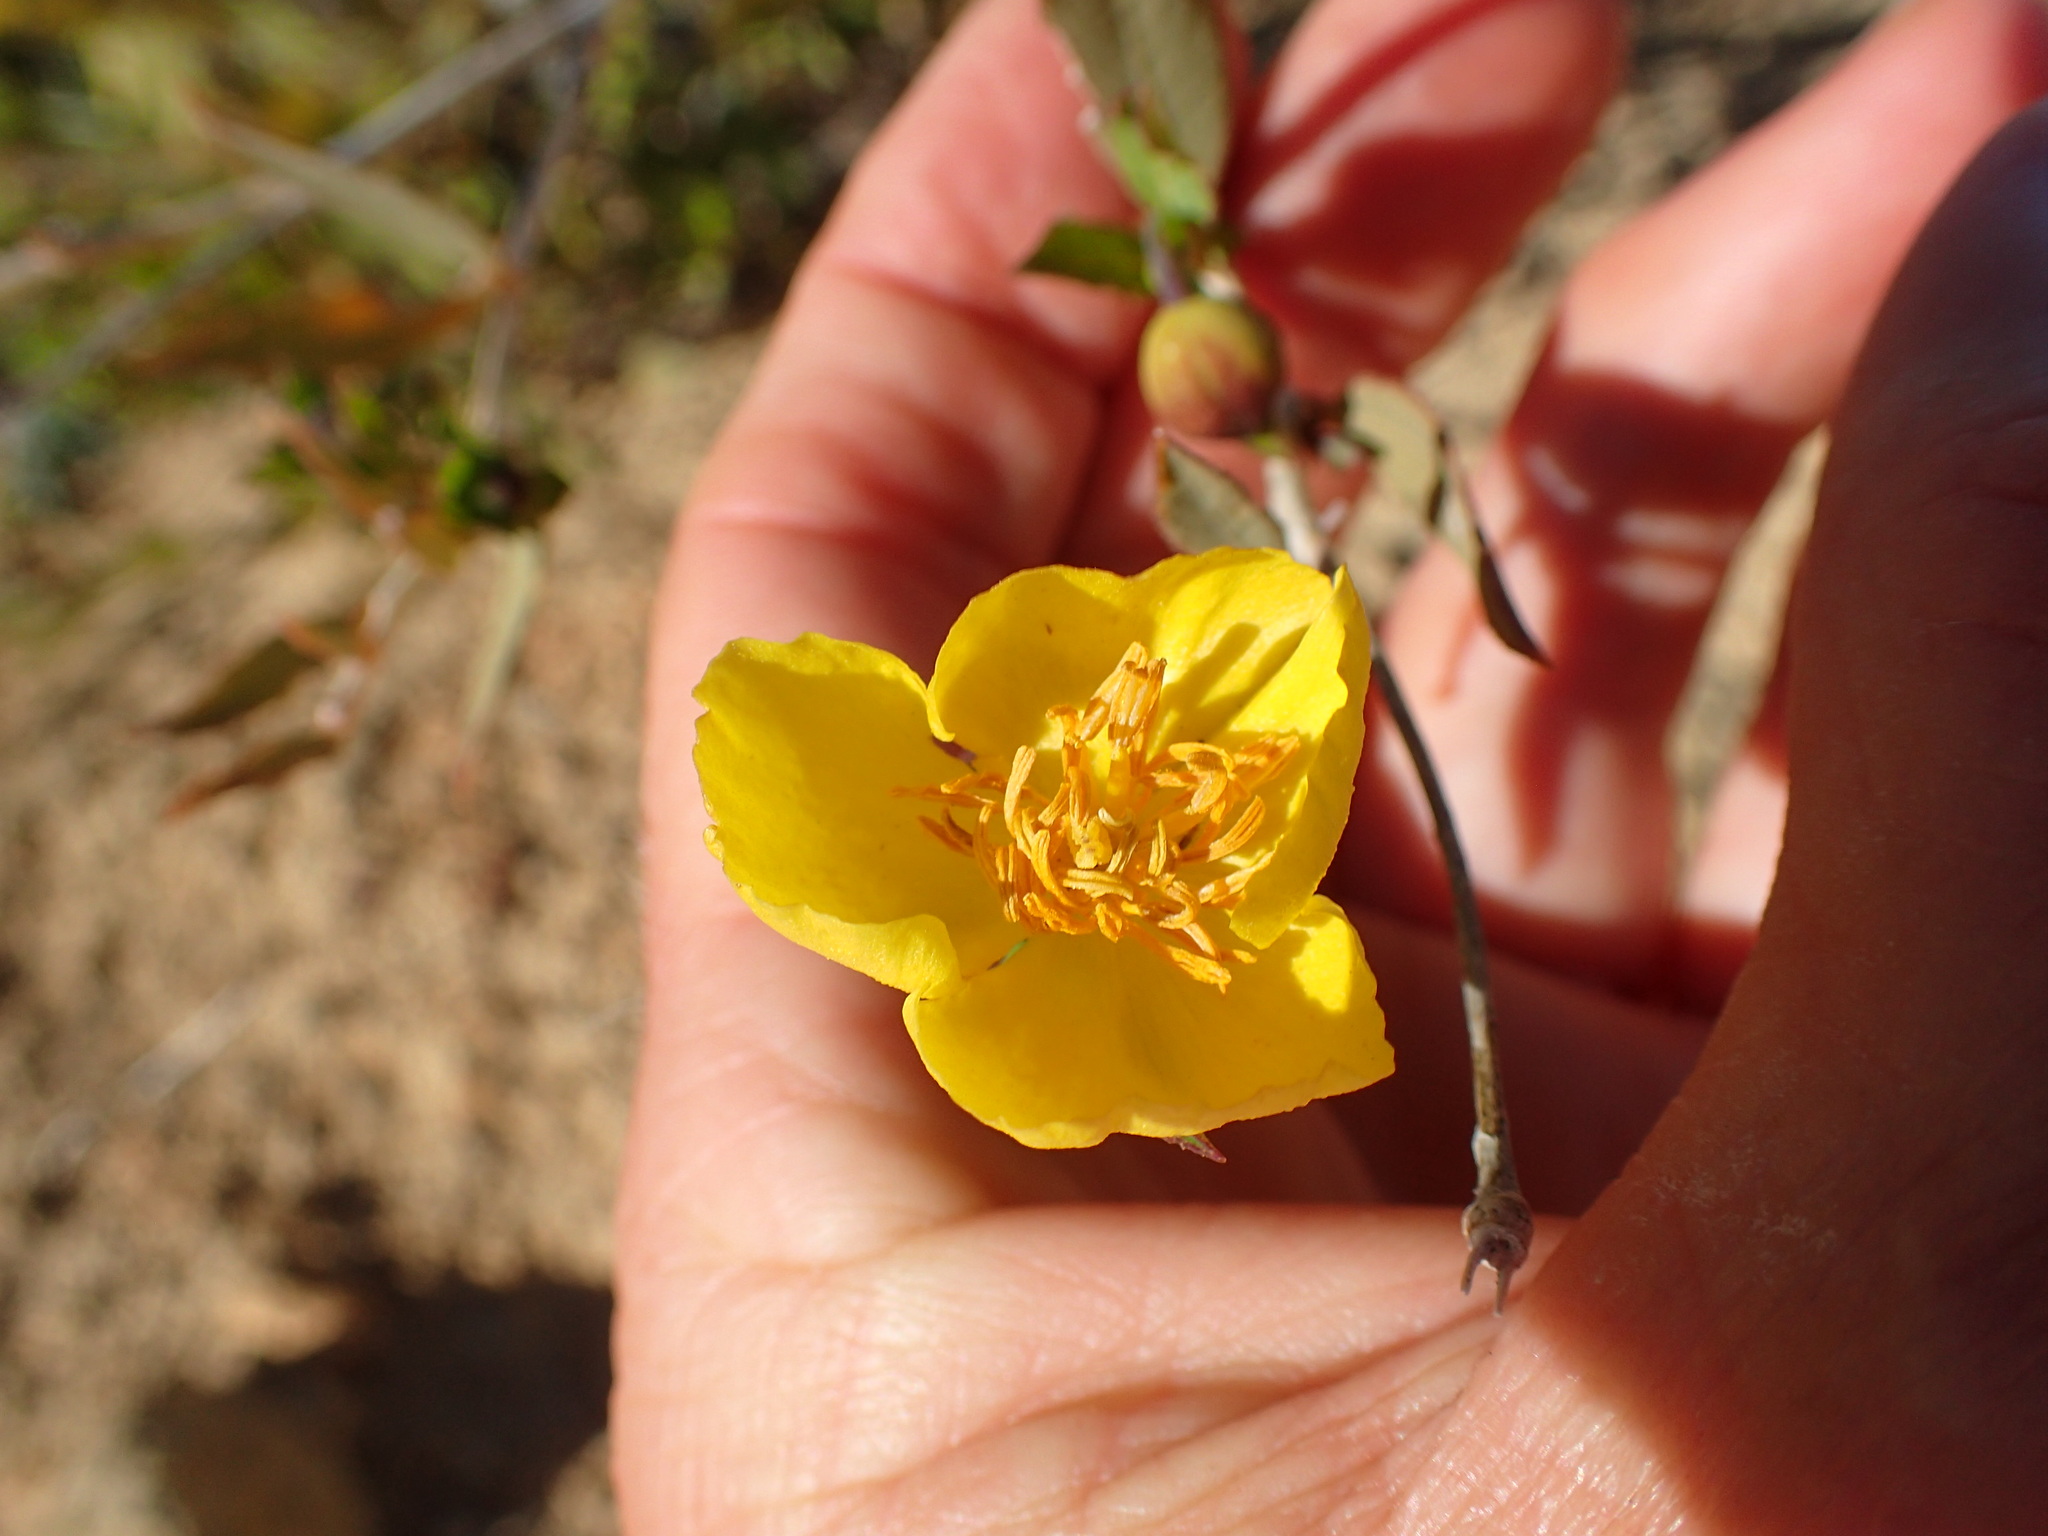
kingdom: Plantae
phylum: Tracheophyta
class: Magnoliopsida
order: Ranunculales
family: Papaveraceae
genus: Dendromecon
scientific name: Dendromecon rigida
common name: Tree poppy
